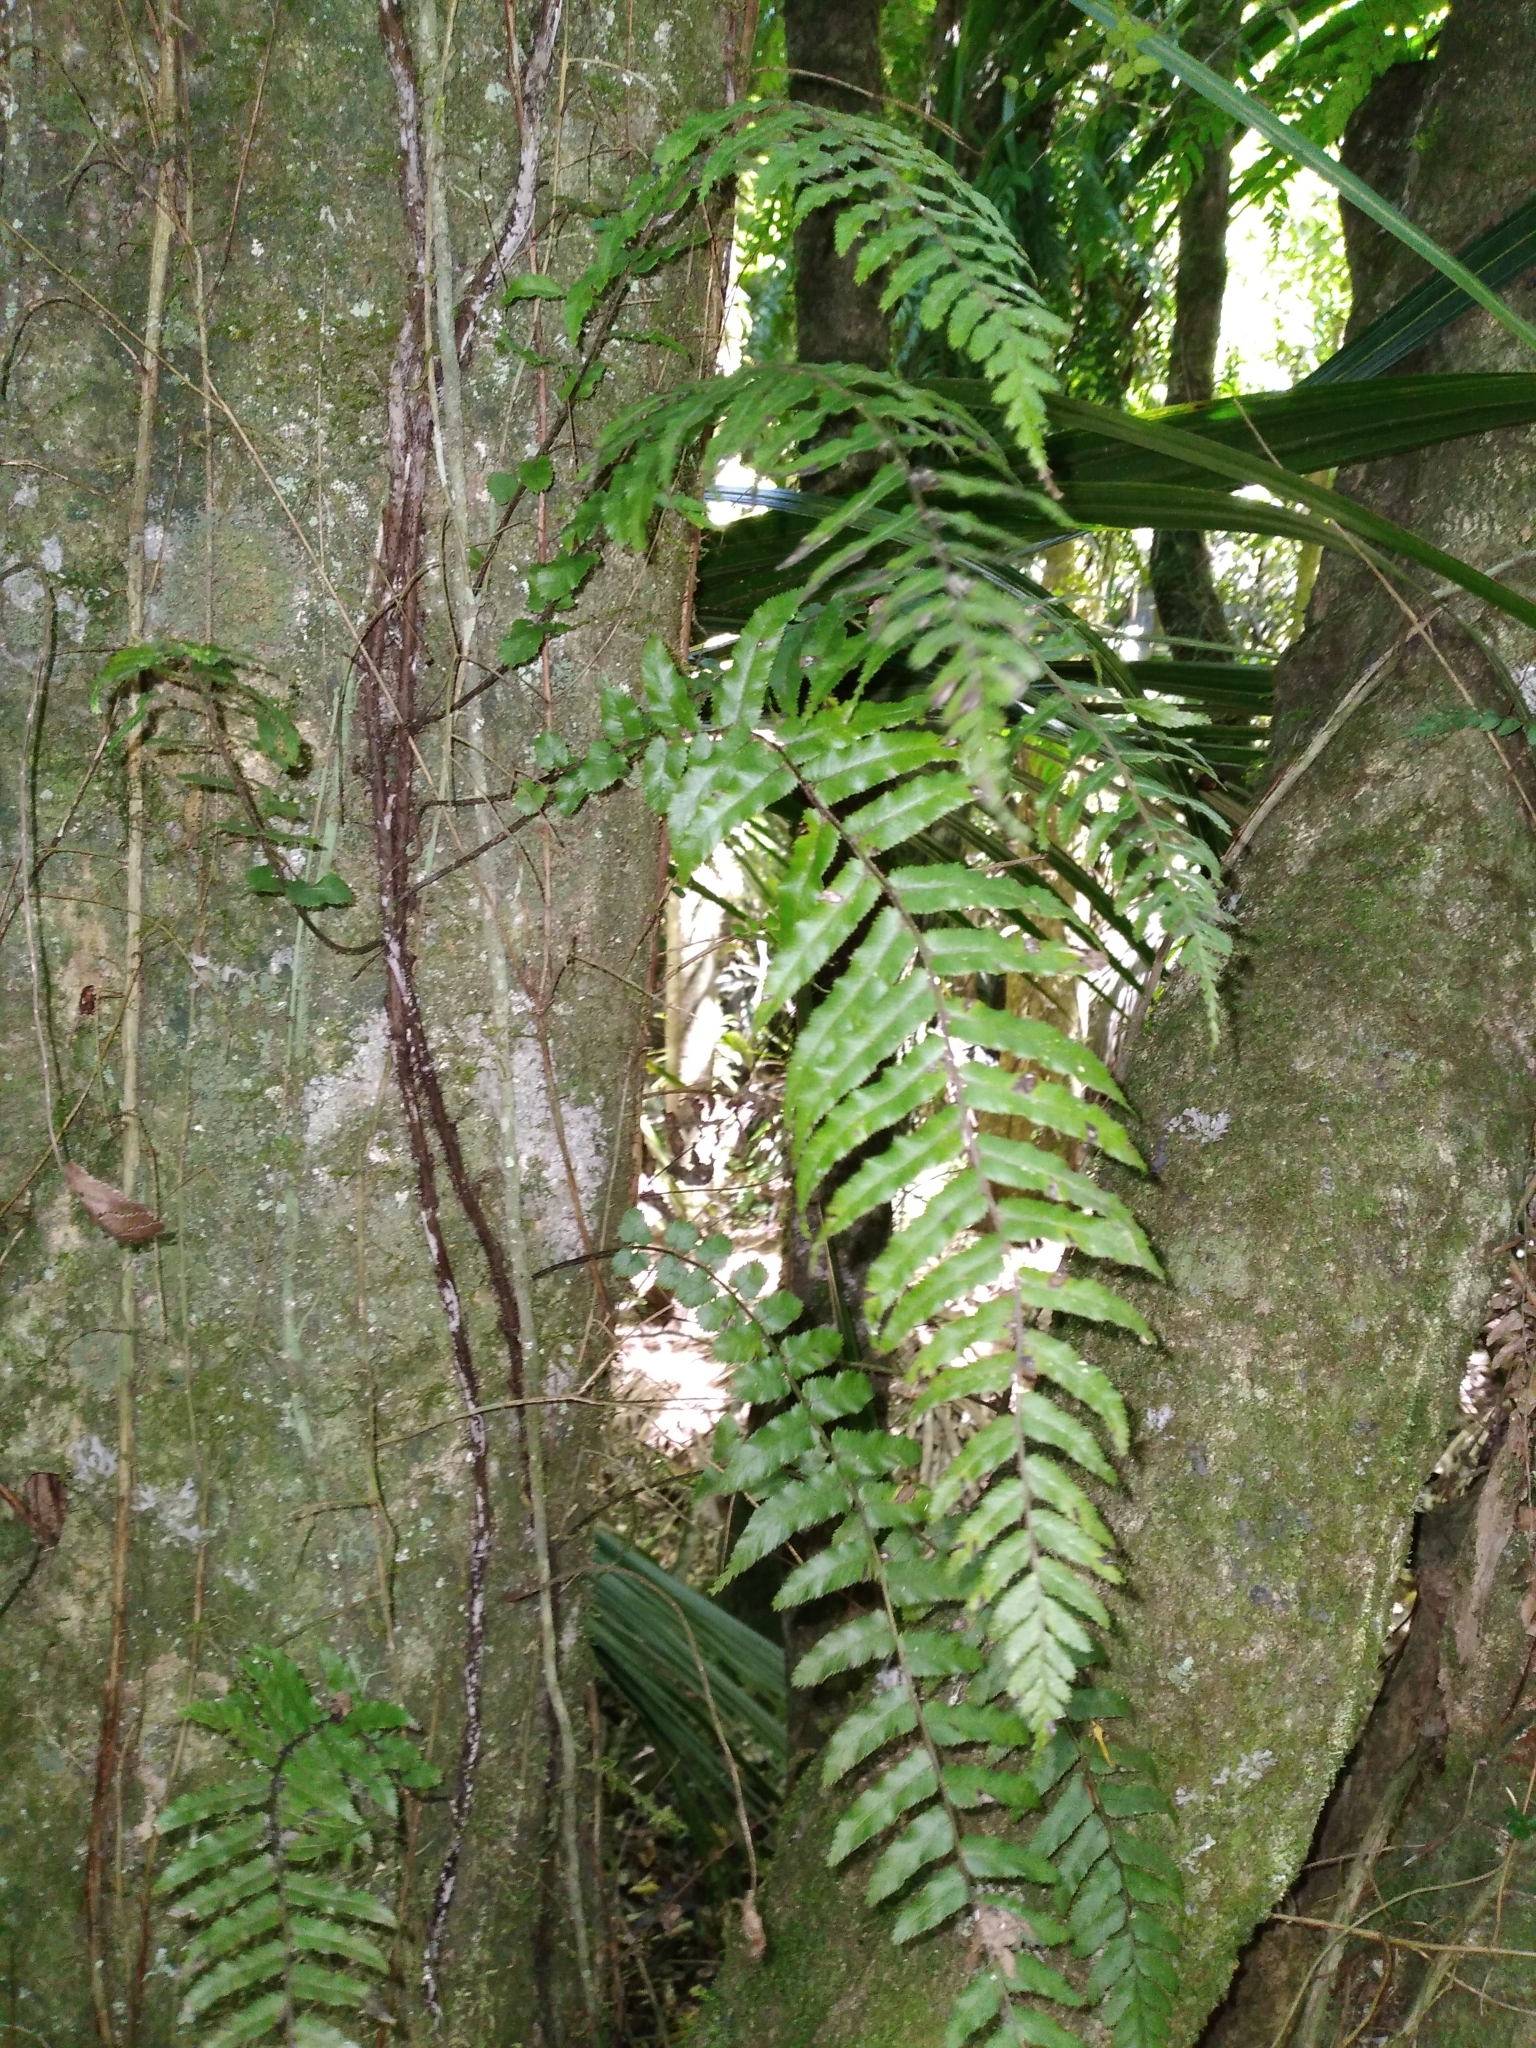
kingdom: Plantae
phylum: Tracheophyta
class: Polypodiopsida
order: Polypodiales
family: Blechnaceae
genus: Icarus
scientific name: Icarus filiformis
